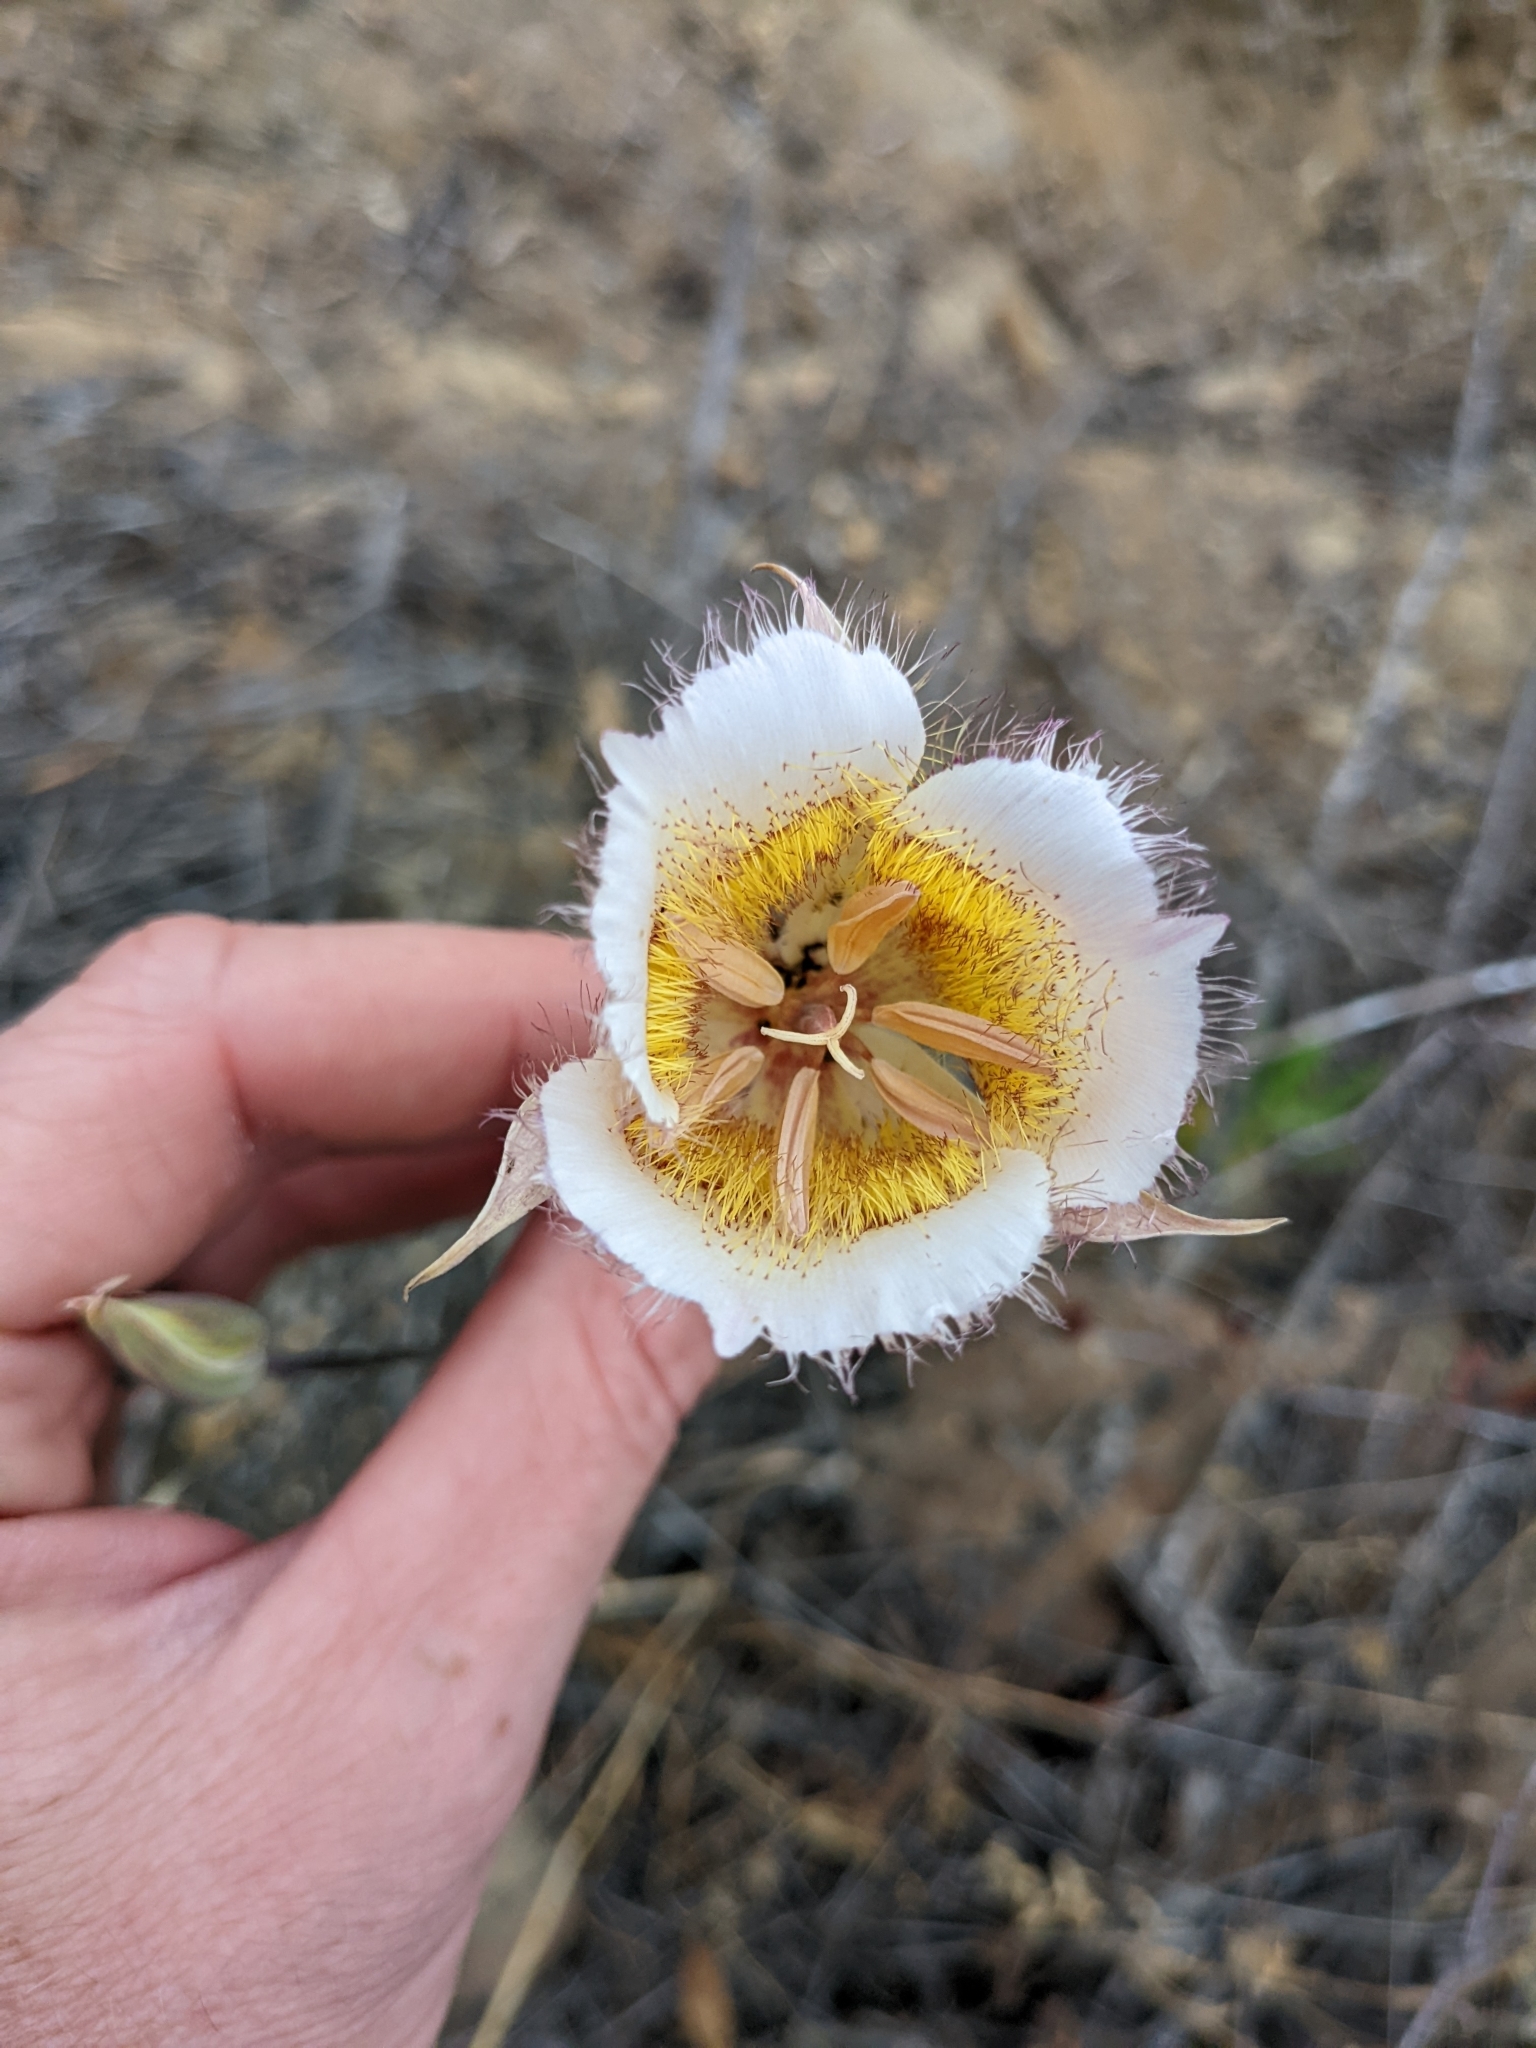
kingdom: Plantae
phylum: Tracheophyta
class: Liliopsida
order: Liliales
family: Liliaceae
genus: Calochortus
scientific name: Calochortus plummerae
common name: Plummer's mariposa-lily
